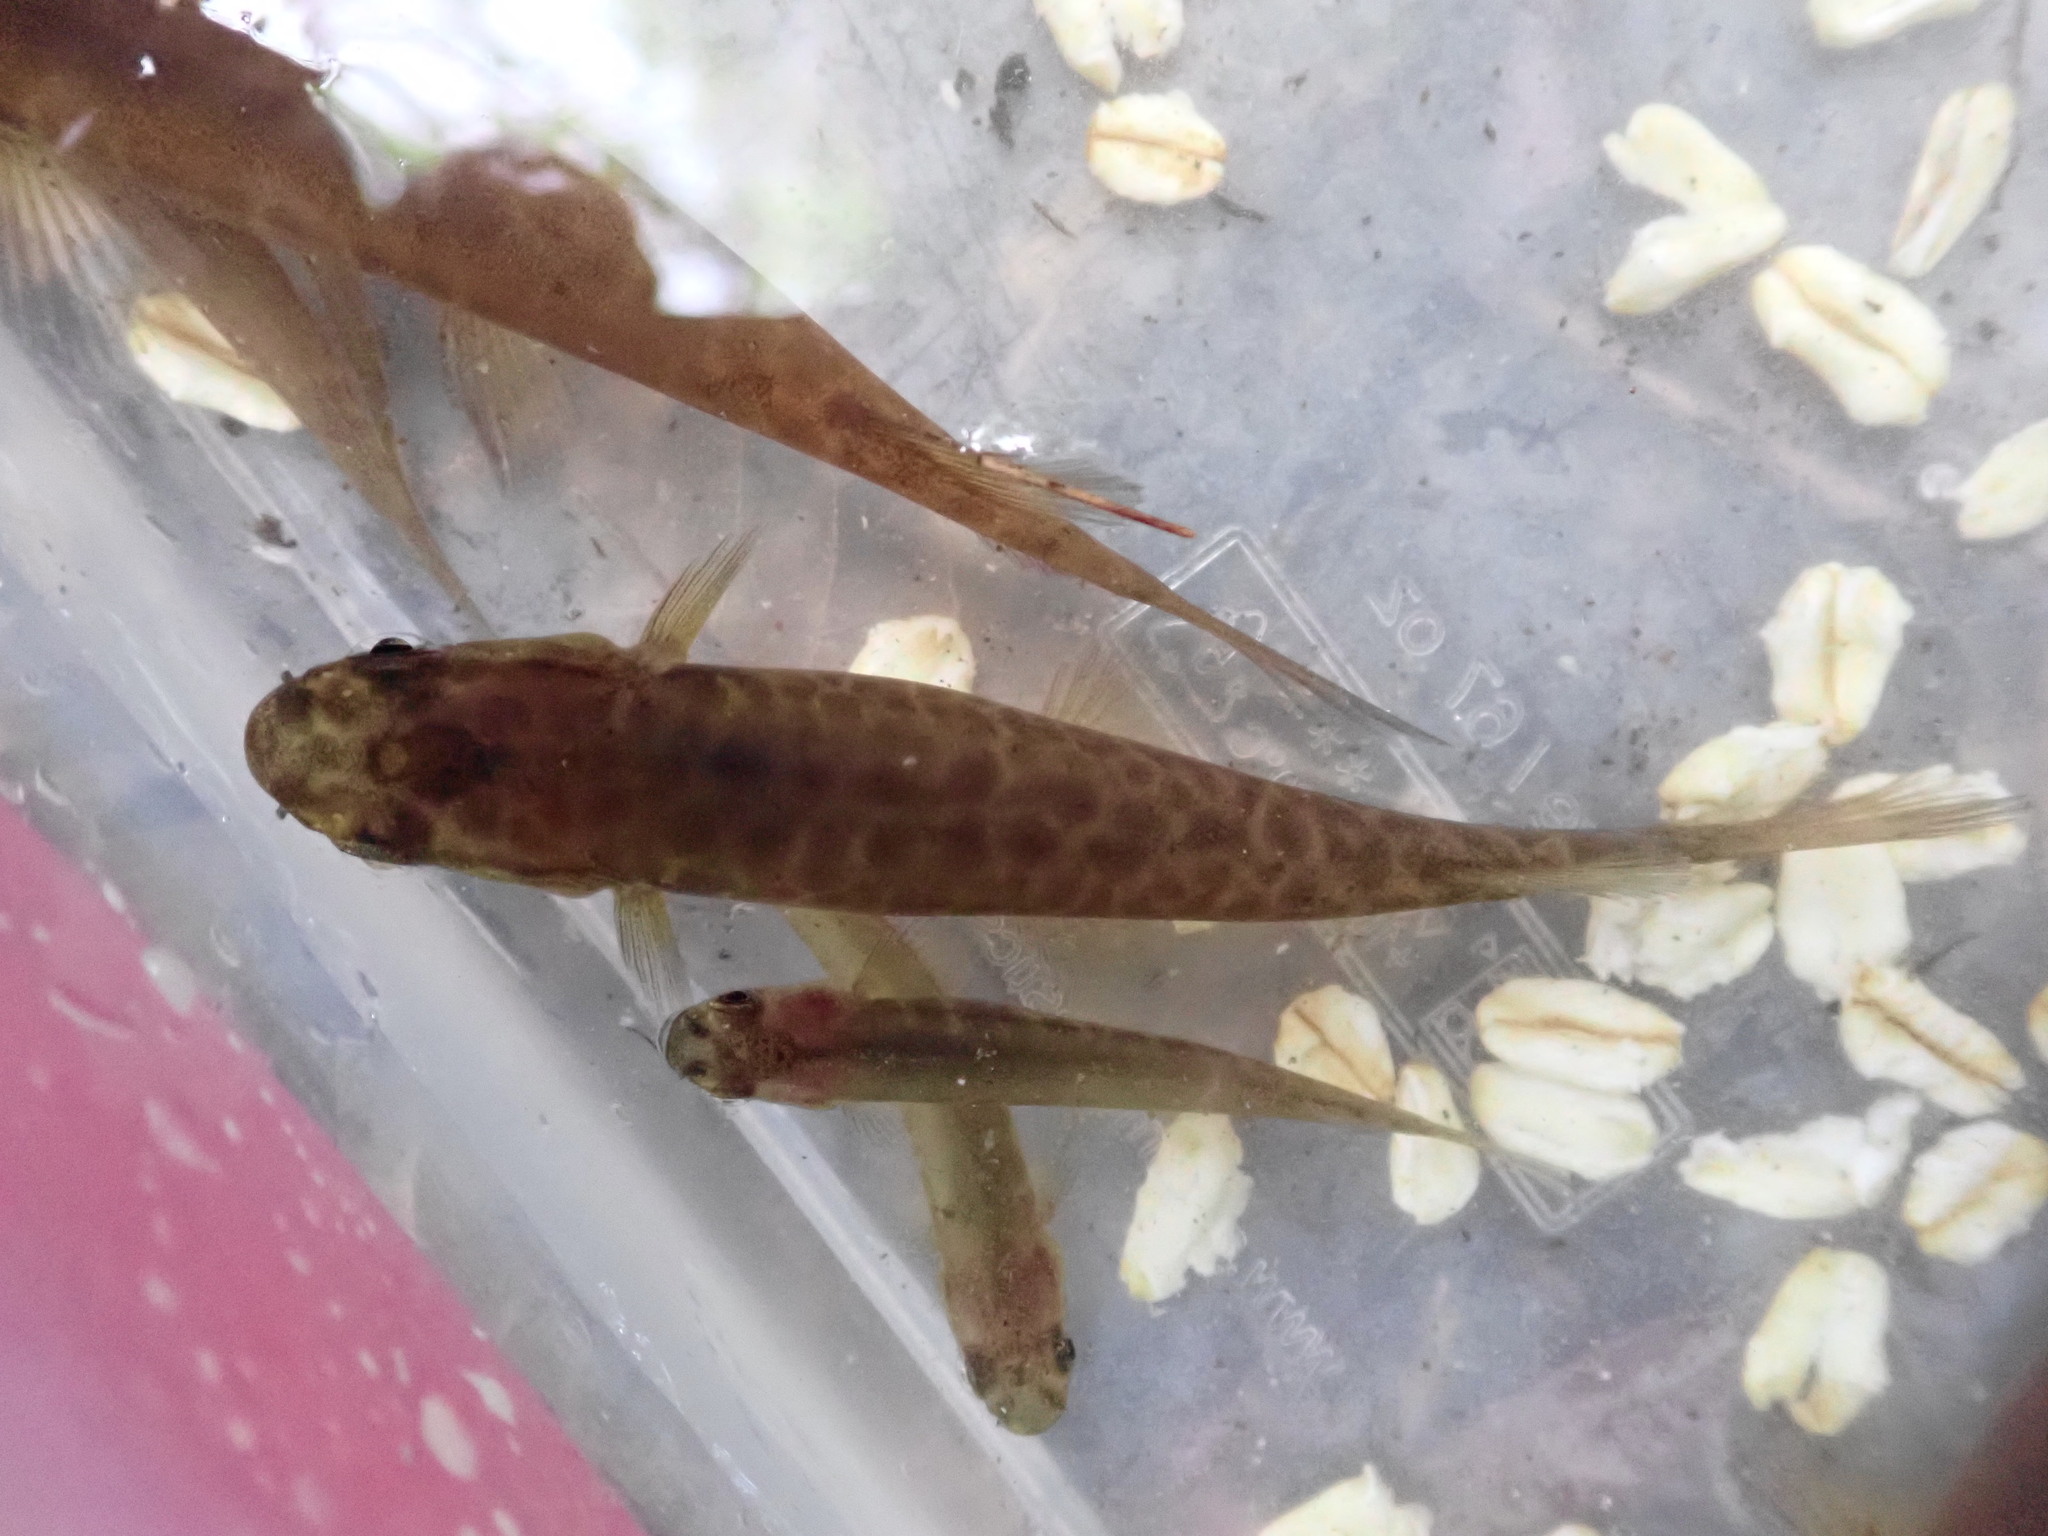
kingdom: Animalia
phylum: Chordata
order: Osmeriformes
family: Galaxiidae
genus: Galaxias
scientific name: Galaxias fasciatus
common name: Banded kokopu
